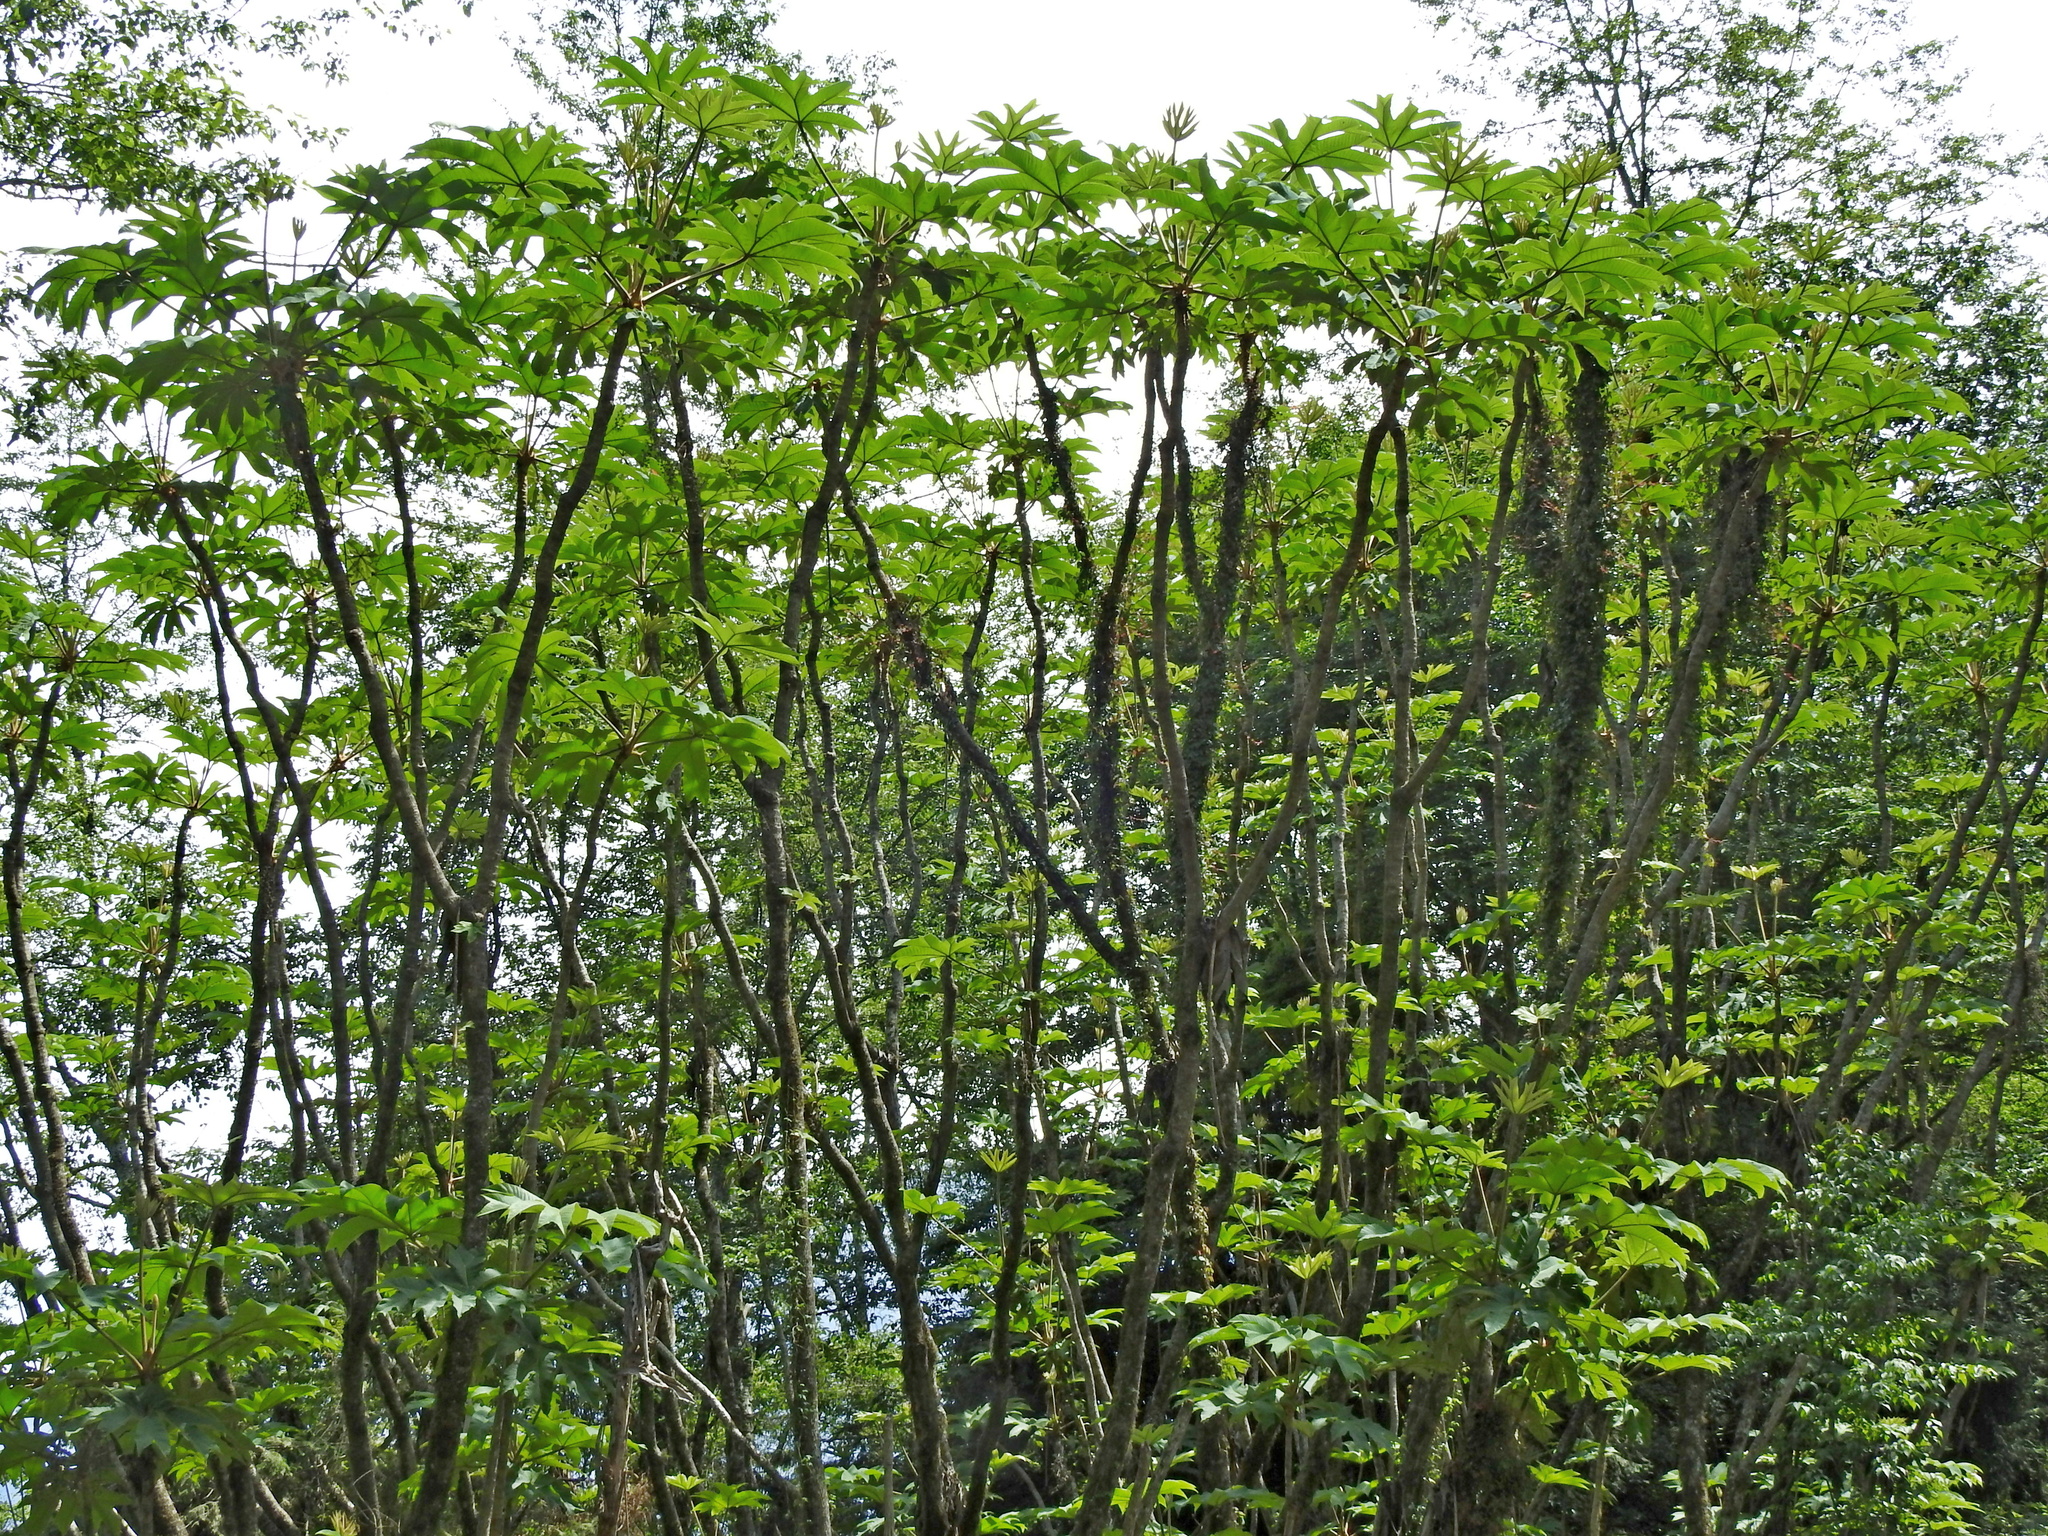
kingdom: Plantae
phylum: Tracheophyta
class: Magnoliopsida
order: Apiales
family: Araliaceae
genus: Tetrapanax
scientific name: Tetrapanax papyrifer
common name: Rice-paper plant
